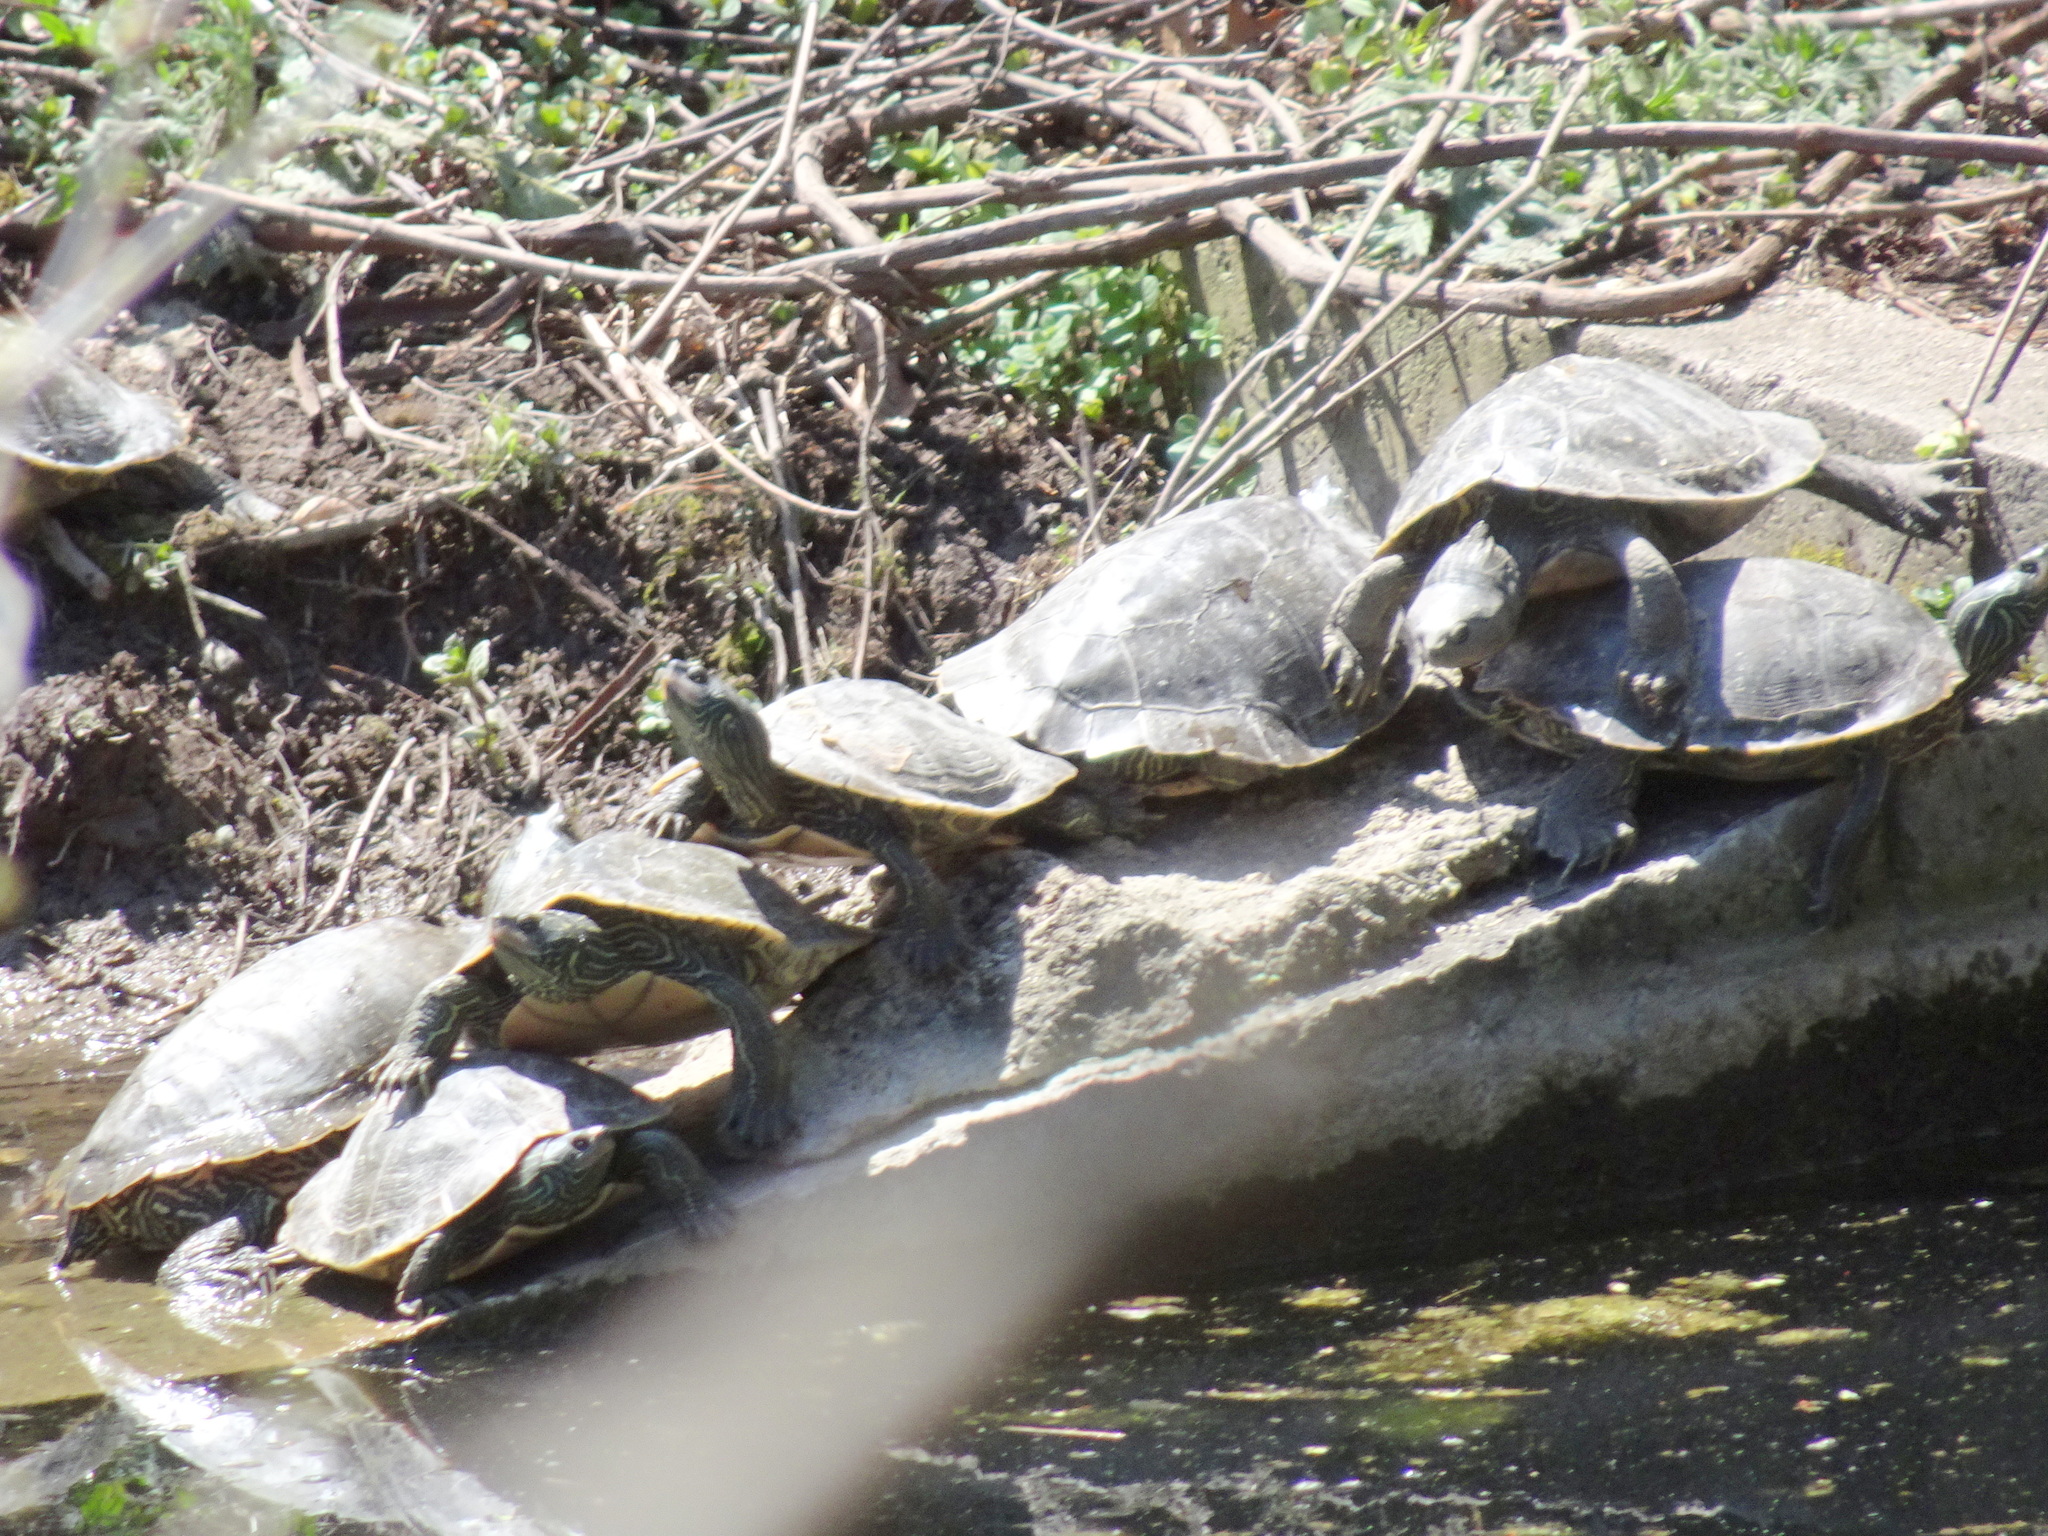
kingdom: Animalia
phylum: Chordata
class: Testudines
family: Emydidae
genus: Graptemys
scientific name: Graptemys geographica
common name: Common map turtle
